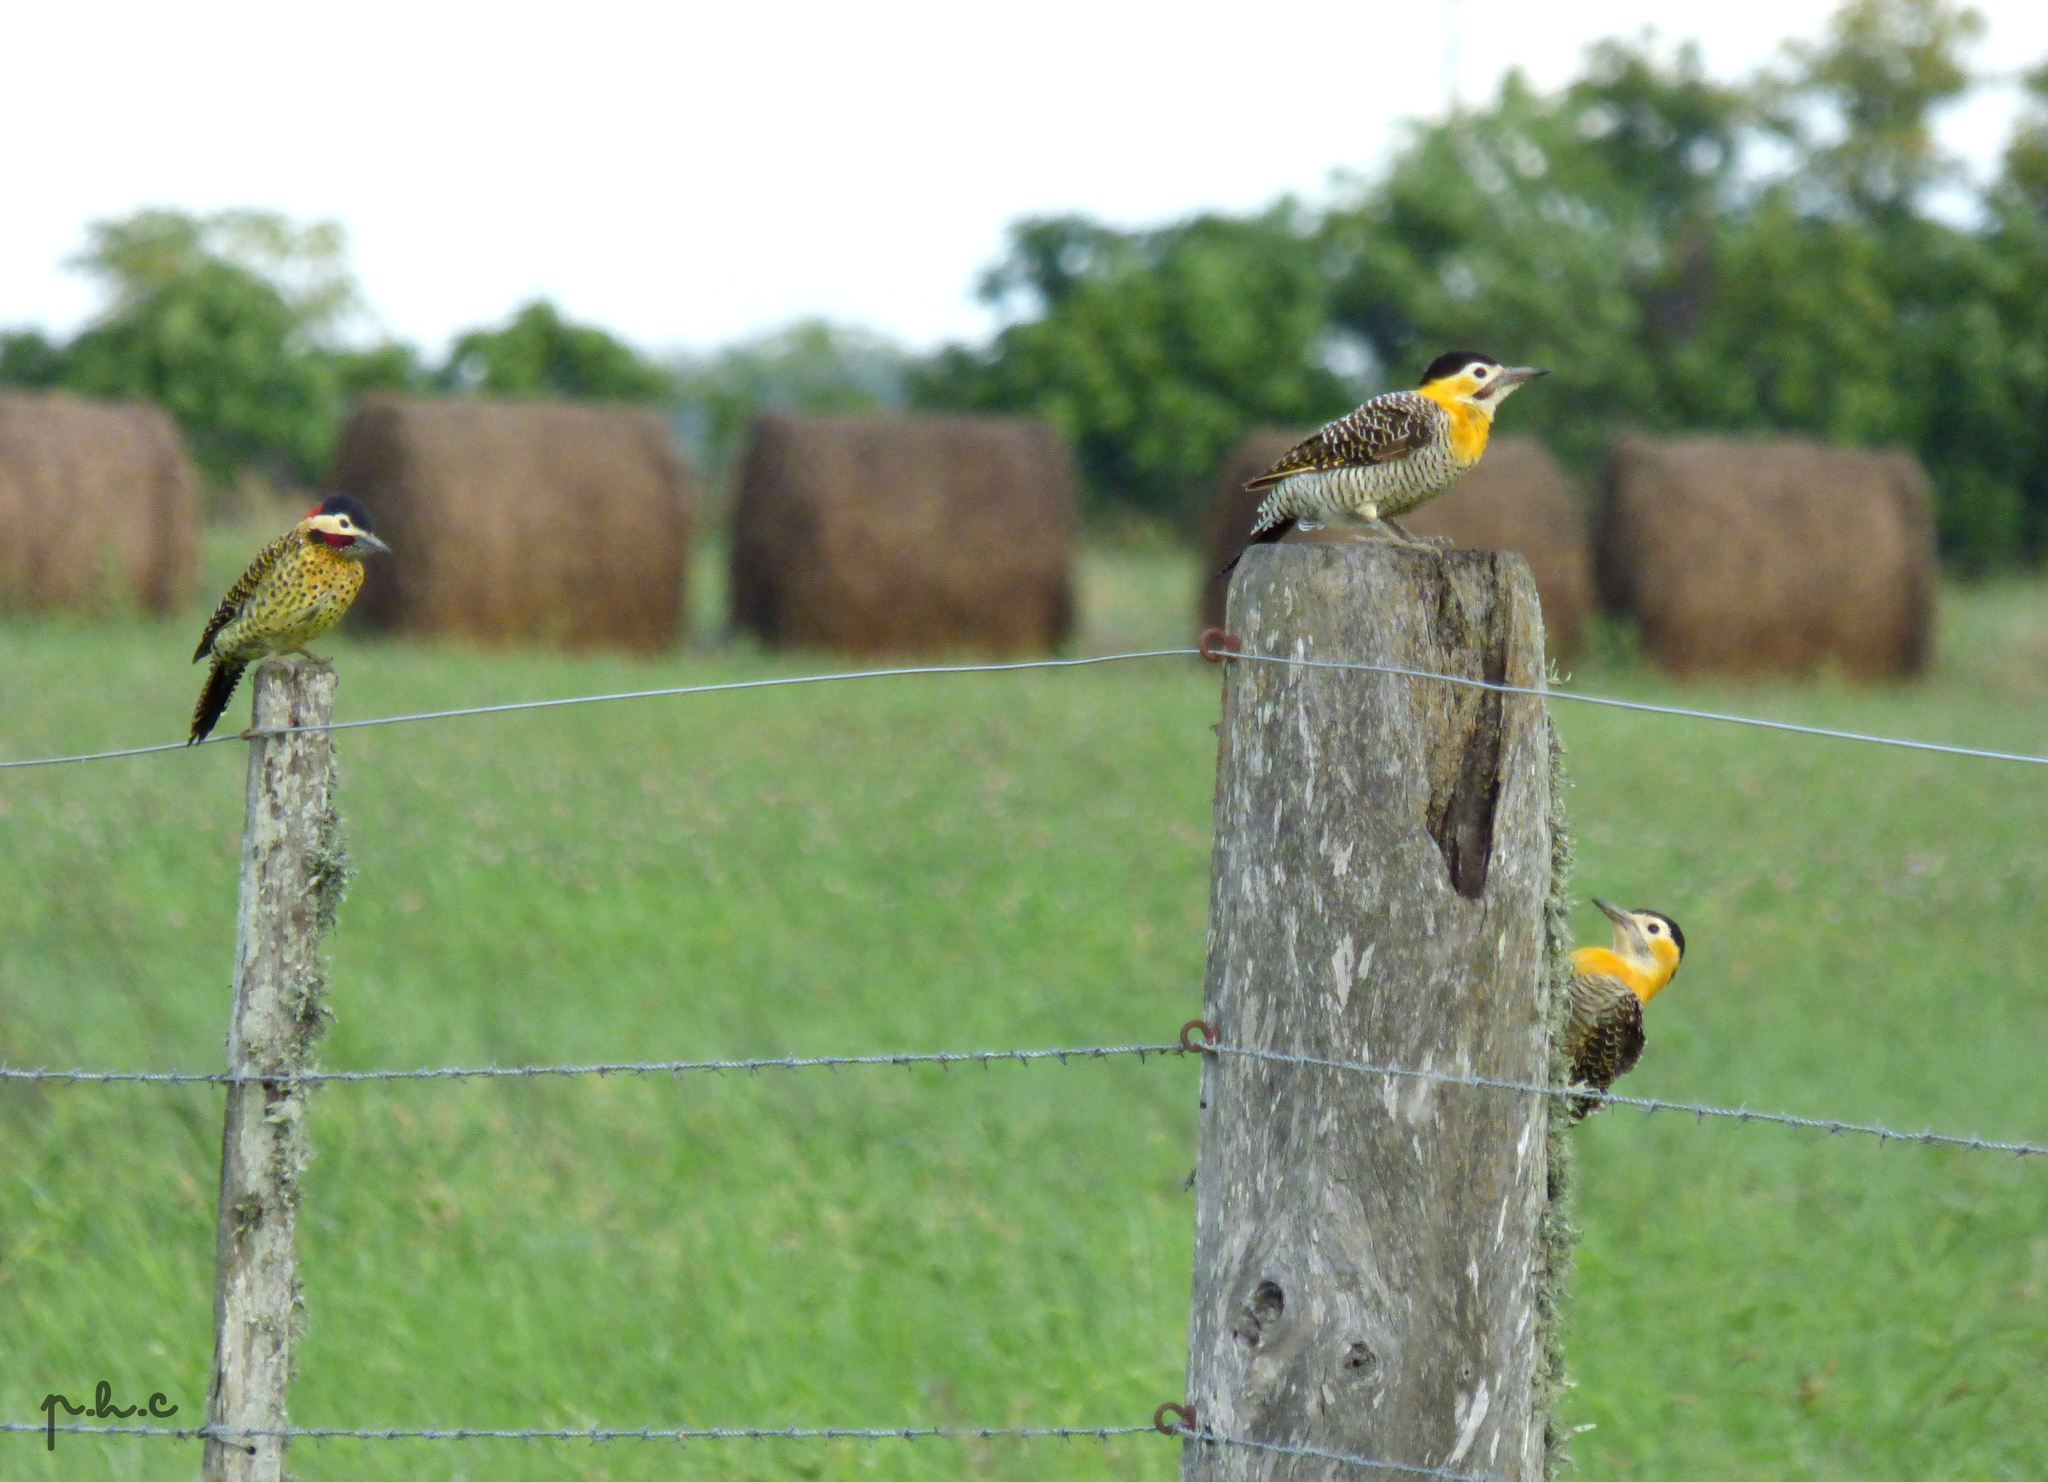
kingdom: Animalia
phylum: Chordata
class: Aves
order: Piciformes
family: Picidae
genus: Colaptes
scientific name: Colaptes campestris
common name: Campo flicker
